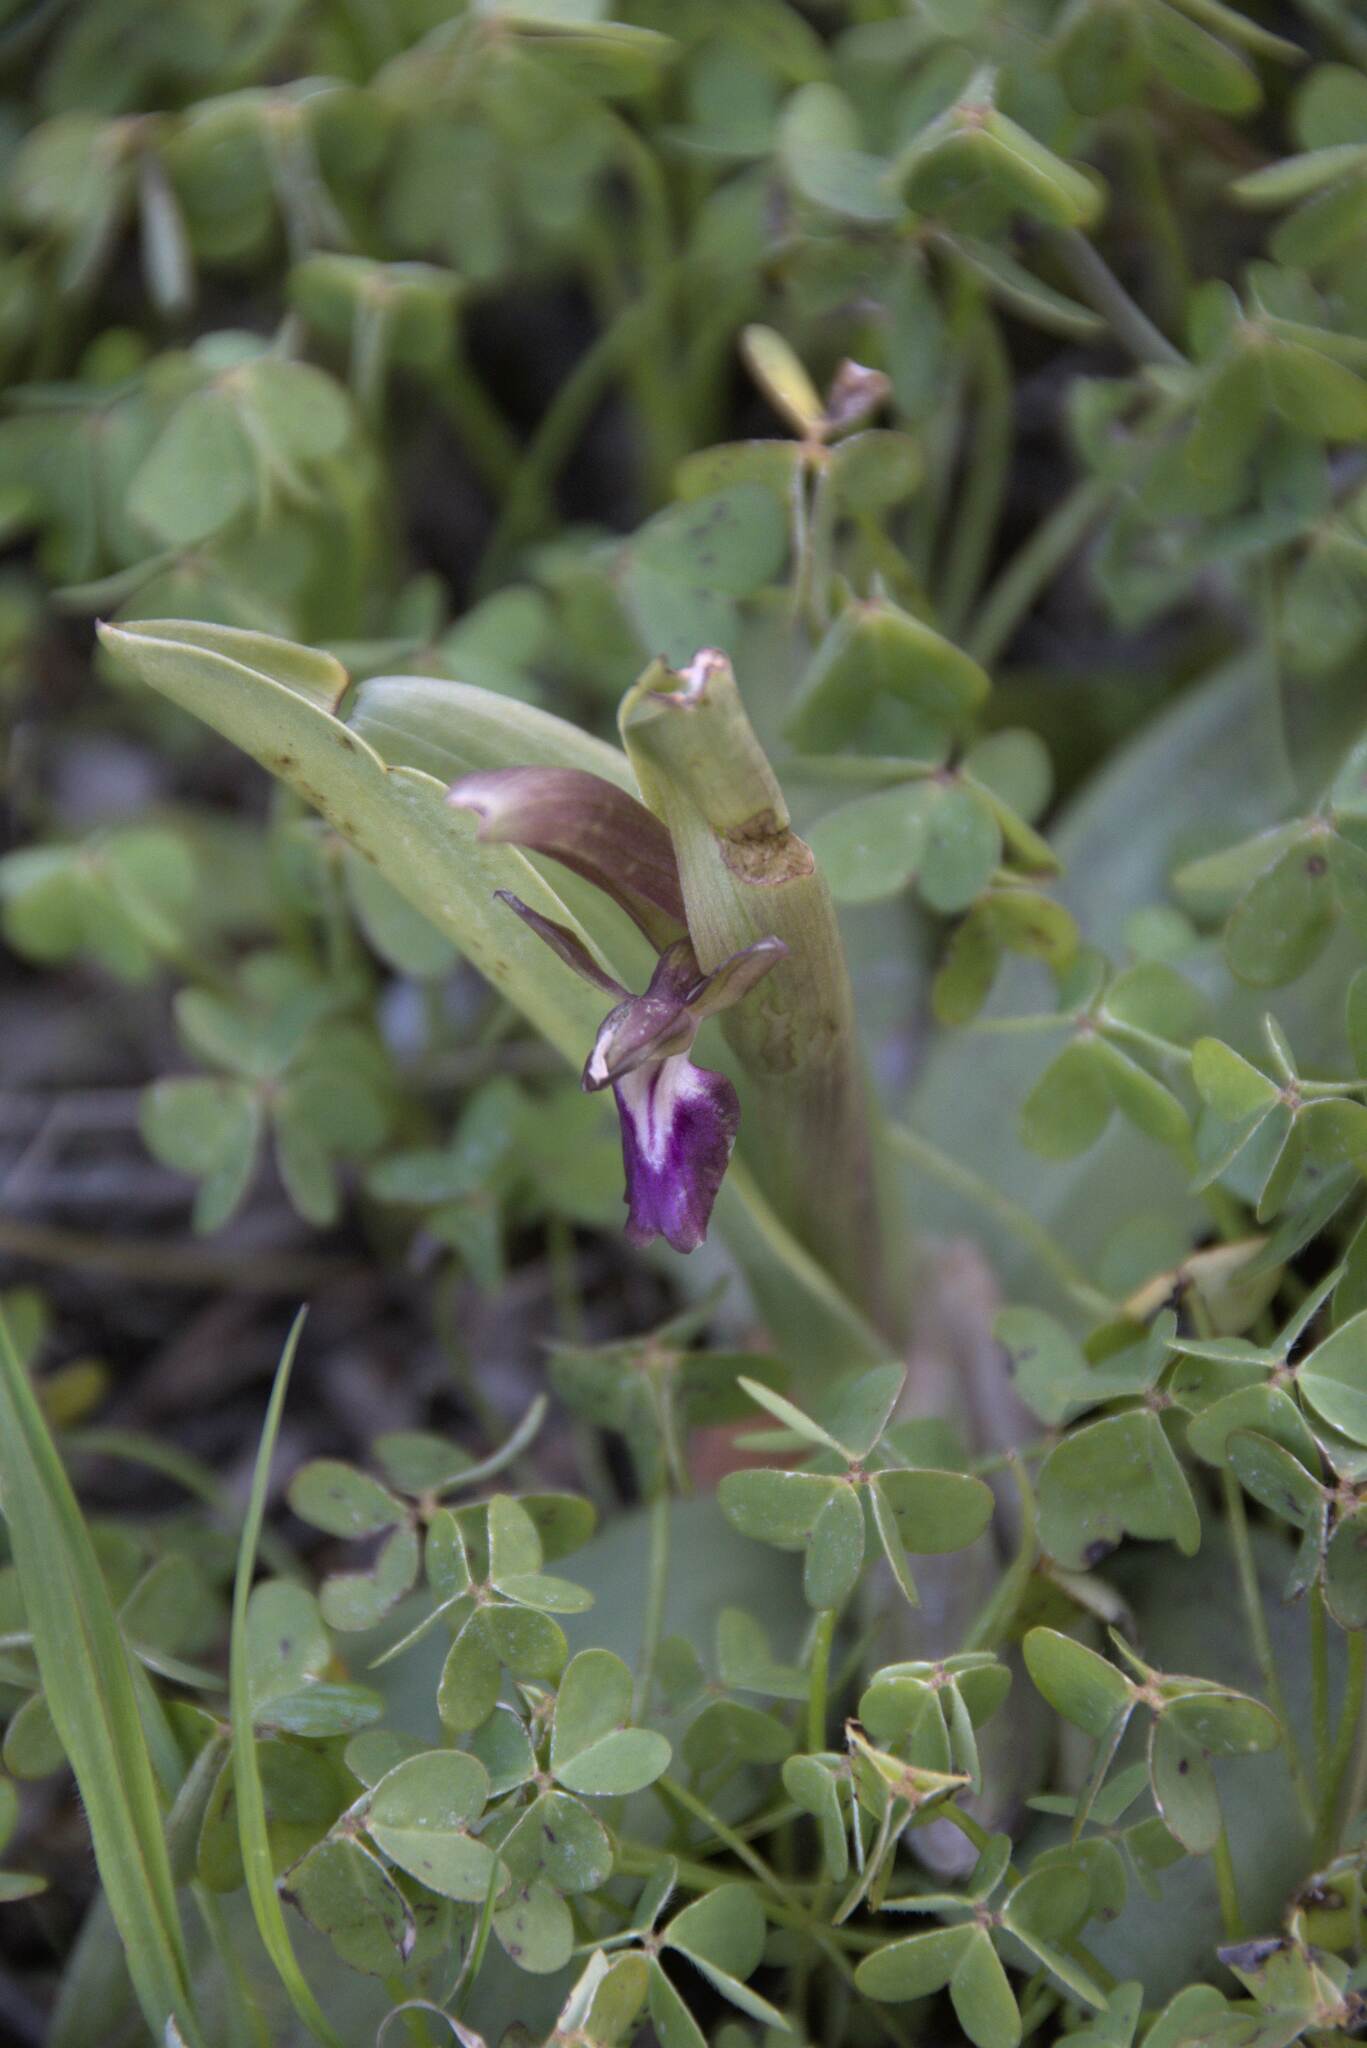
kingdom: Plantae
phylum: Tracheophyta
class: Liliopsida
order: Asparagales
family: Orchidaceae
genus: Anacamptis
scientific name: Anacamptis collina
